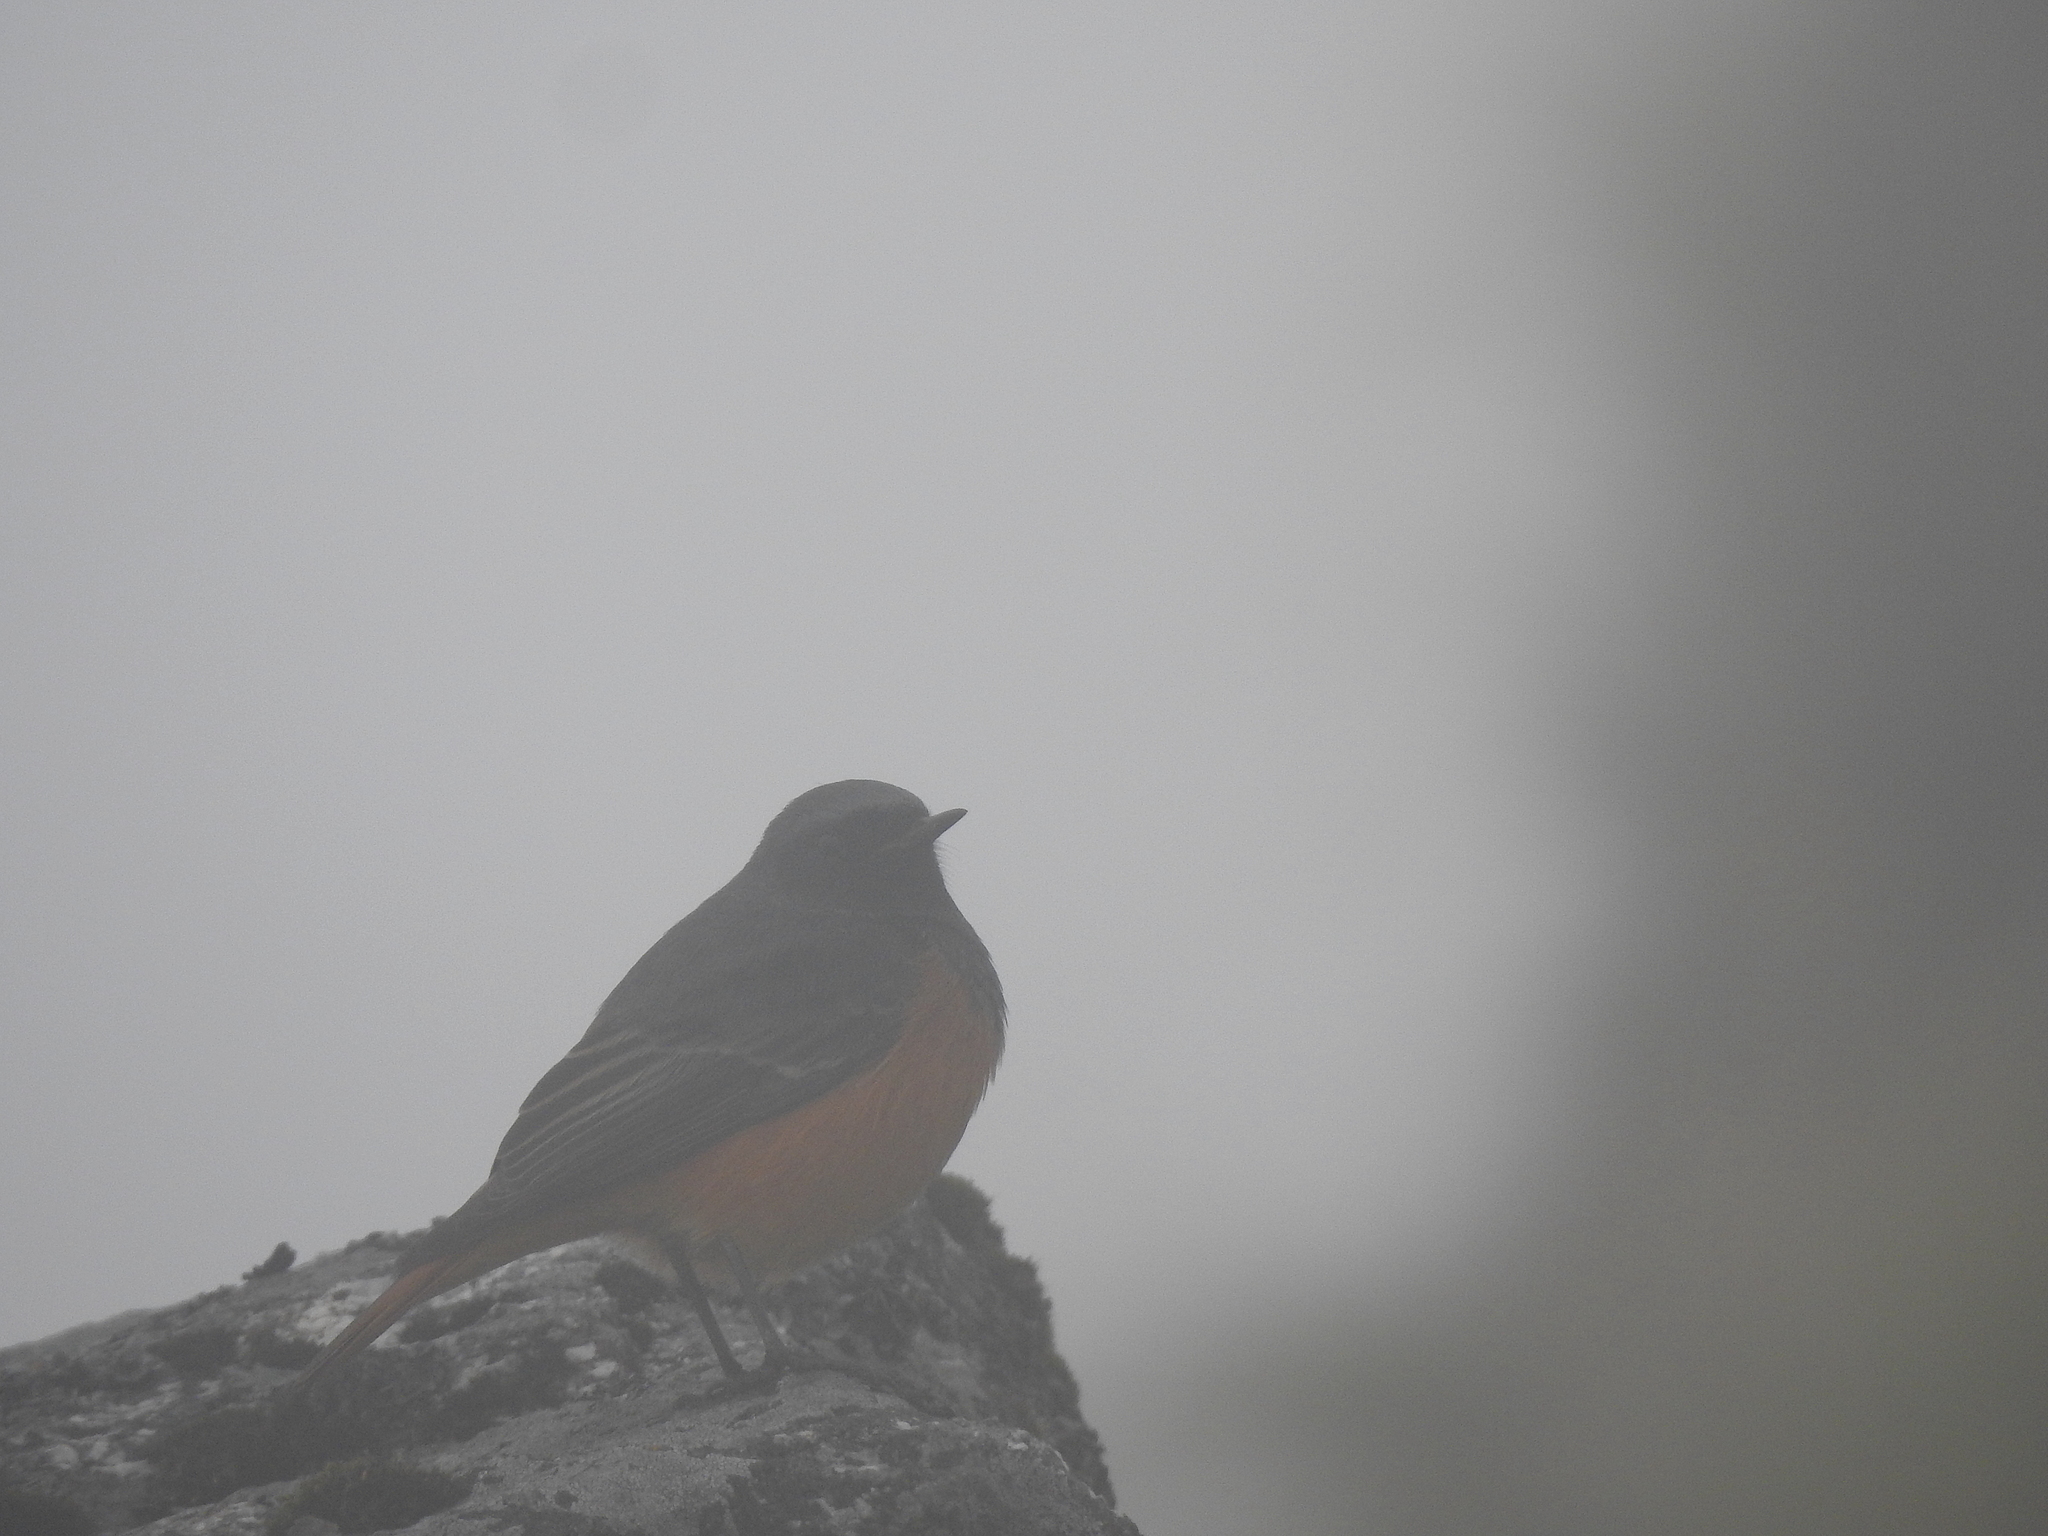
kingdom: Animalia
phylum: Chordata
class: Aves
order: Passeriformes
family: Muscicapidae
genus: Phoenicurus
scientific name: Phoenicurus ochruros
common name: Black redstart
